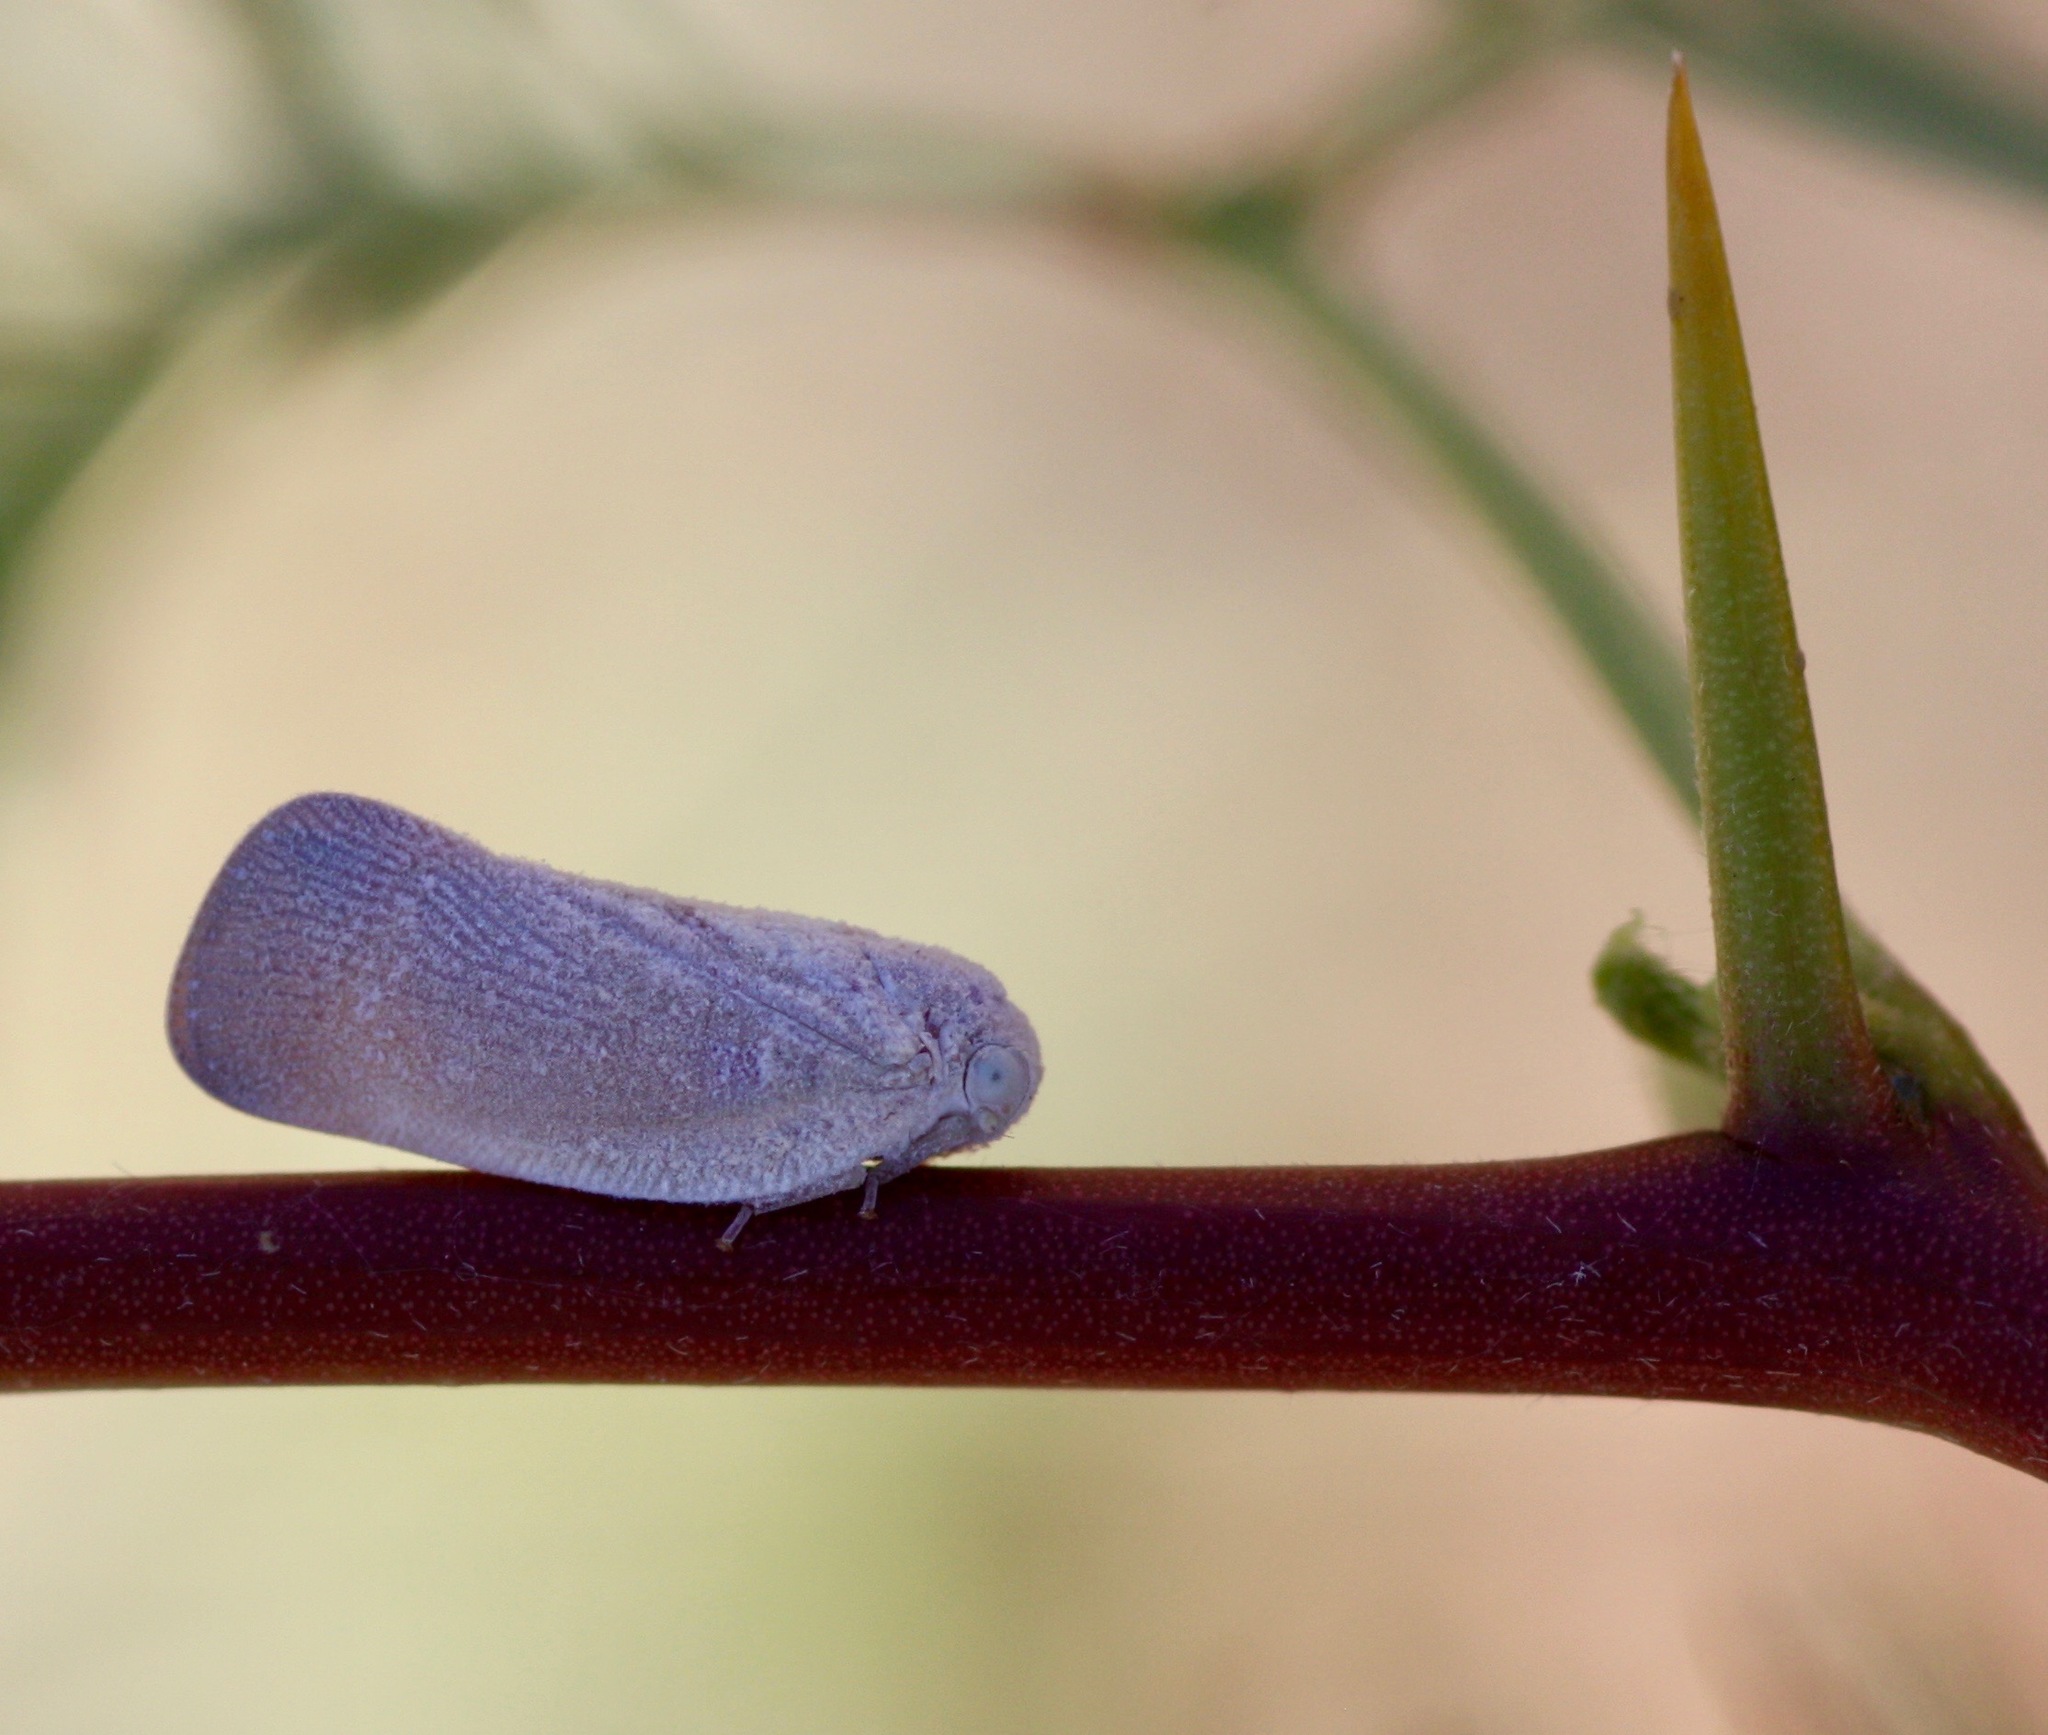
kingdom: Animalia
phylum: Arthropoda
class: Insecta
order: Hemiptera
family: Flatidae
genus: Flatormenis
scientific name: Flatormenis saucia
